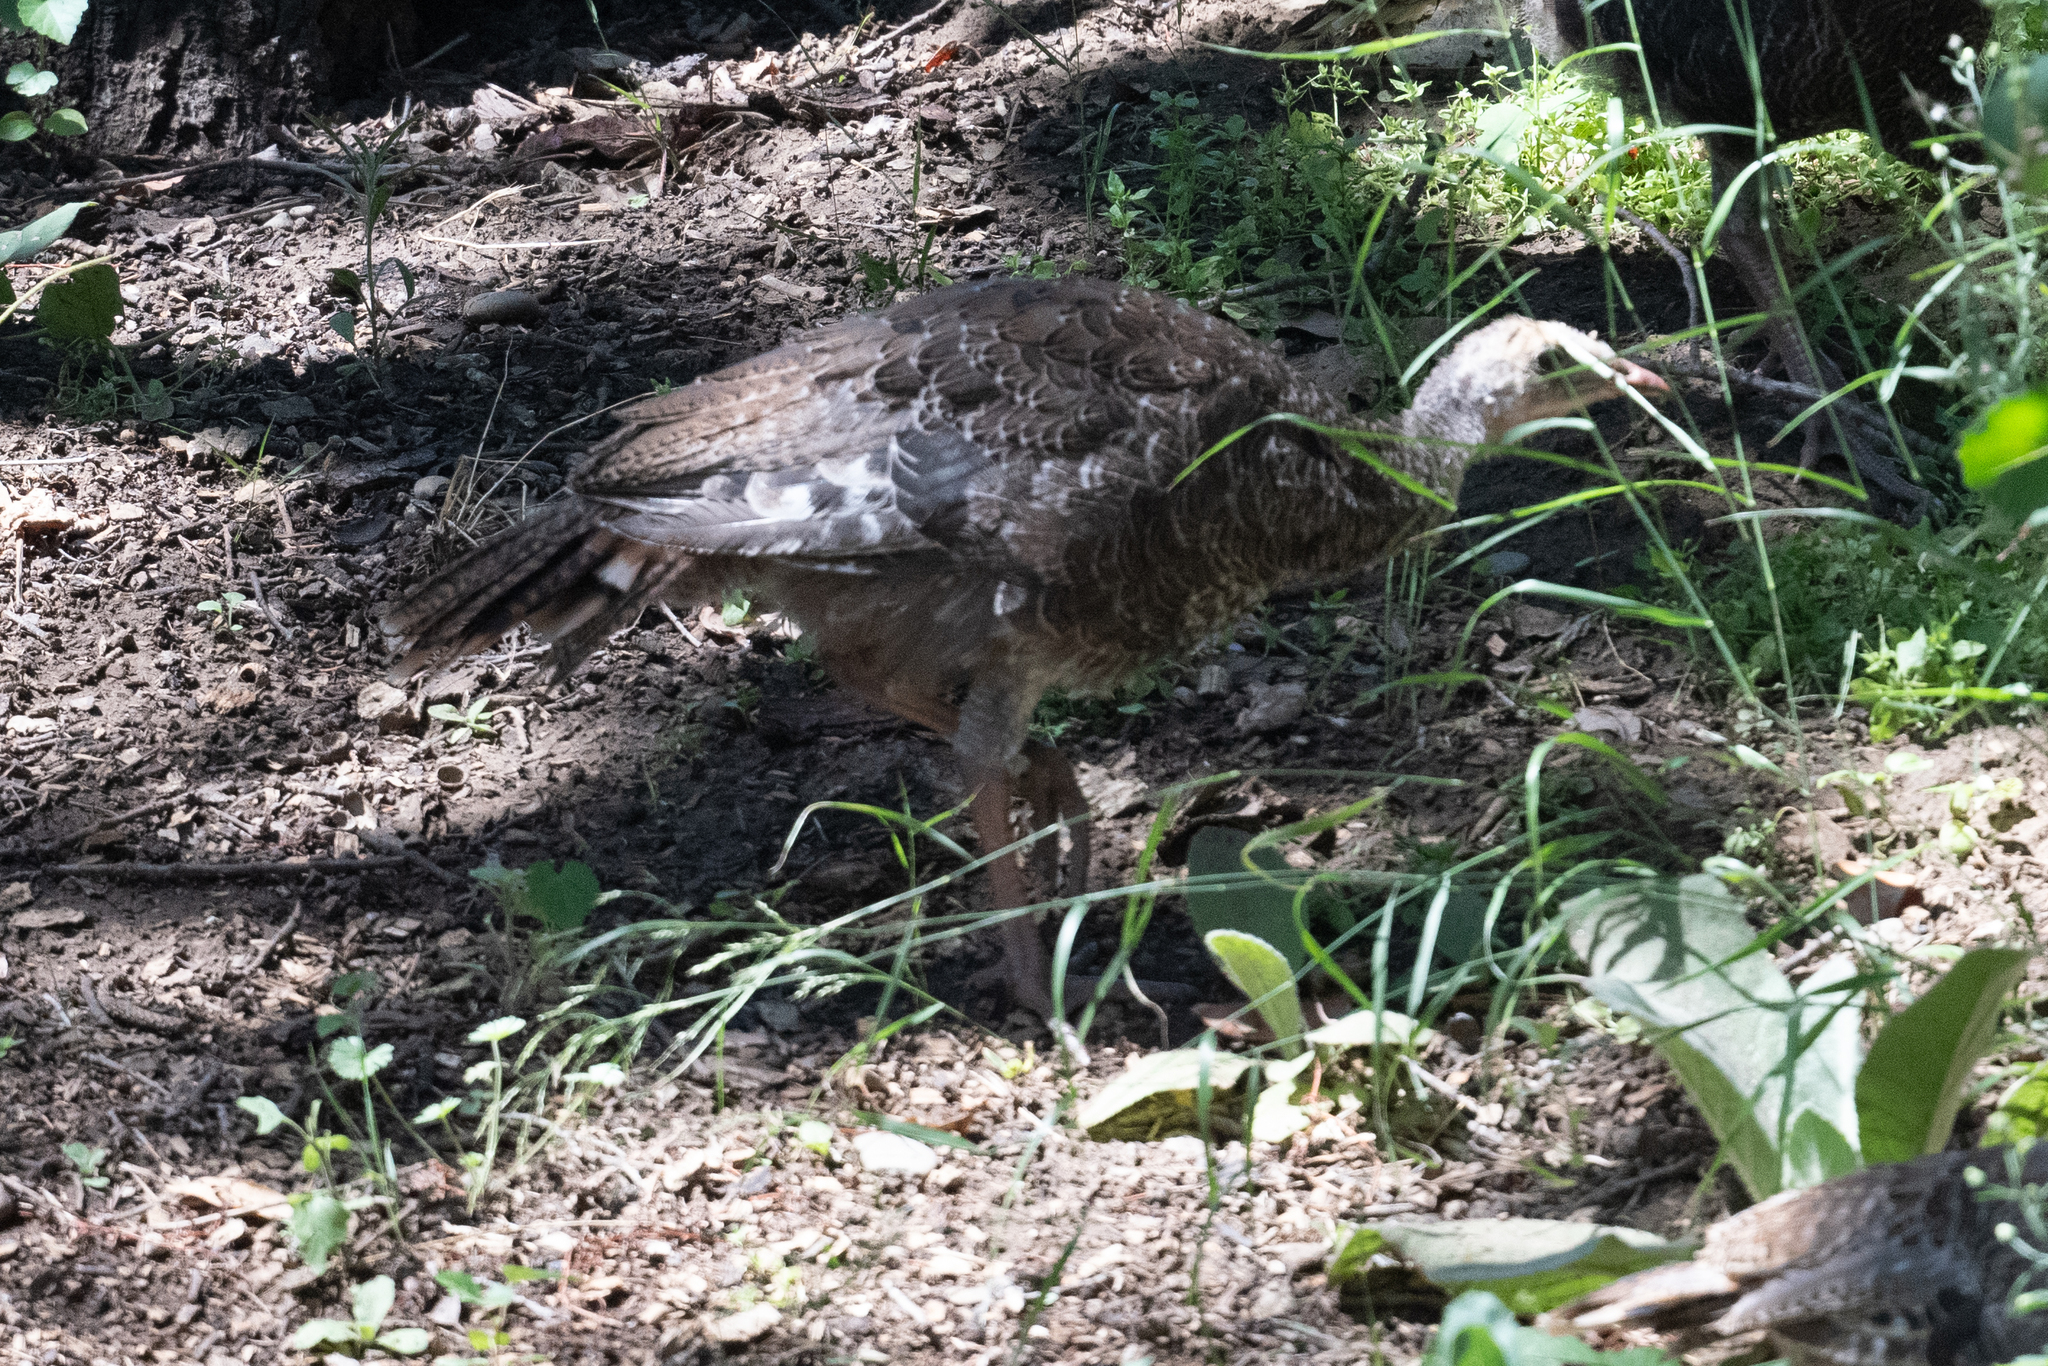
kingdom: Animalia
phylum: Chordata
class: Aves
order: Galliformes
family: Phasianidae
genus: Meleagris
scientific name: Meleagris gallopavo
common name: Wild turkey
